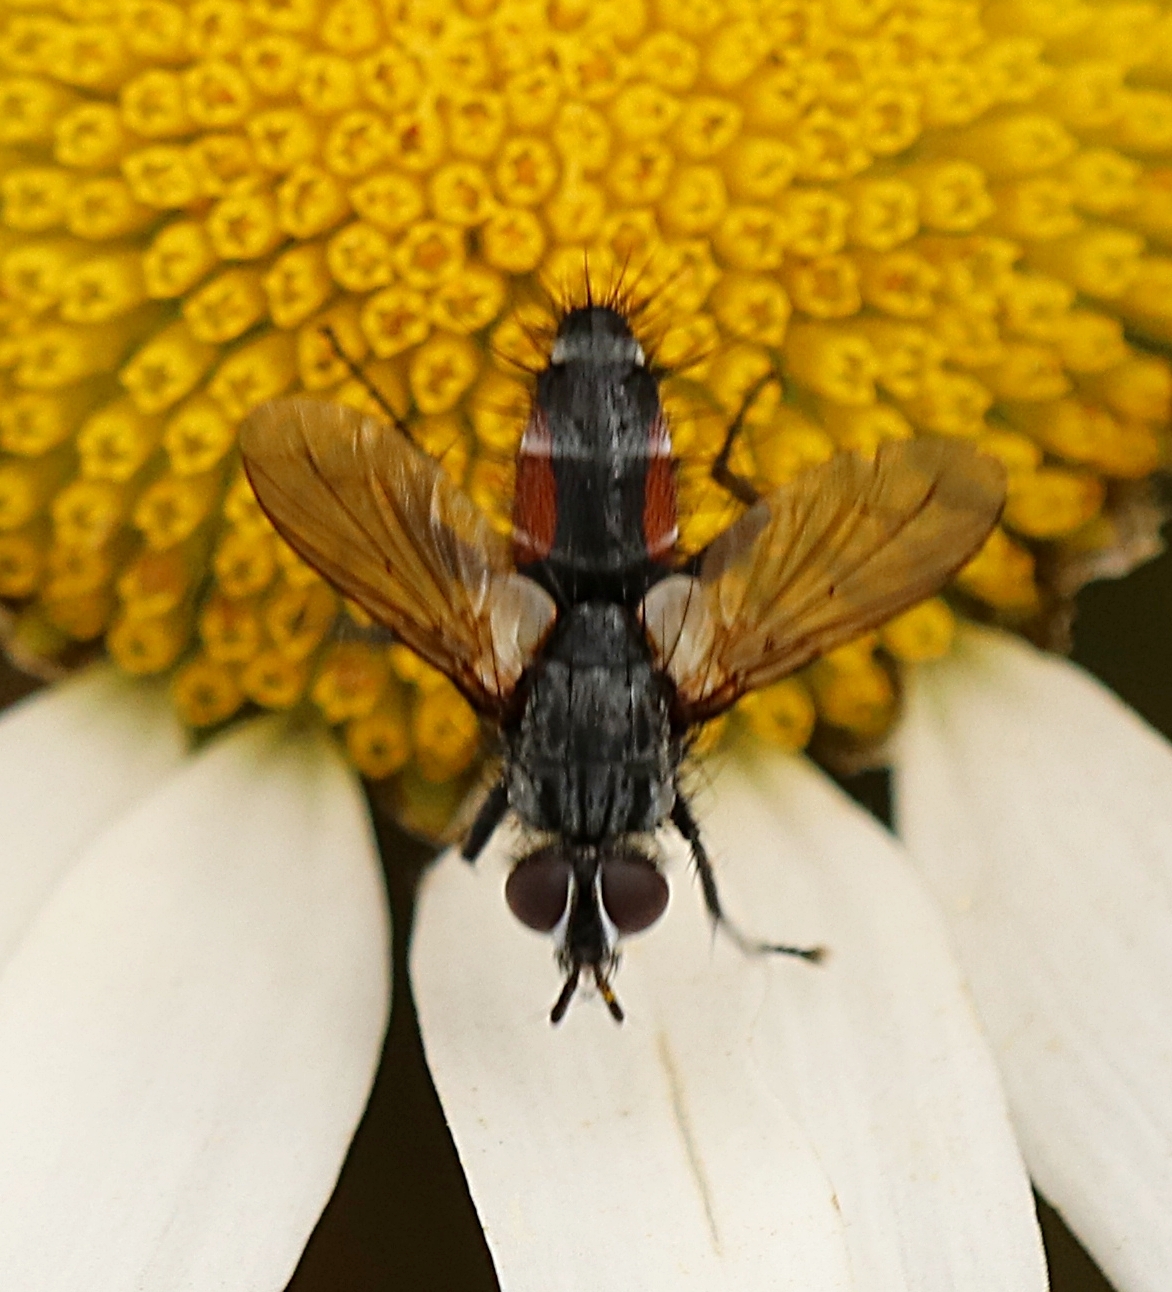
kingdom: Animalia
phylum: Arthropoda
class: Insecta
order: Diptera
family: Tachinidae
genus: Eriothrix
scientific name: Eriothrix rufomaculatus
